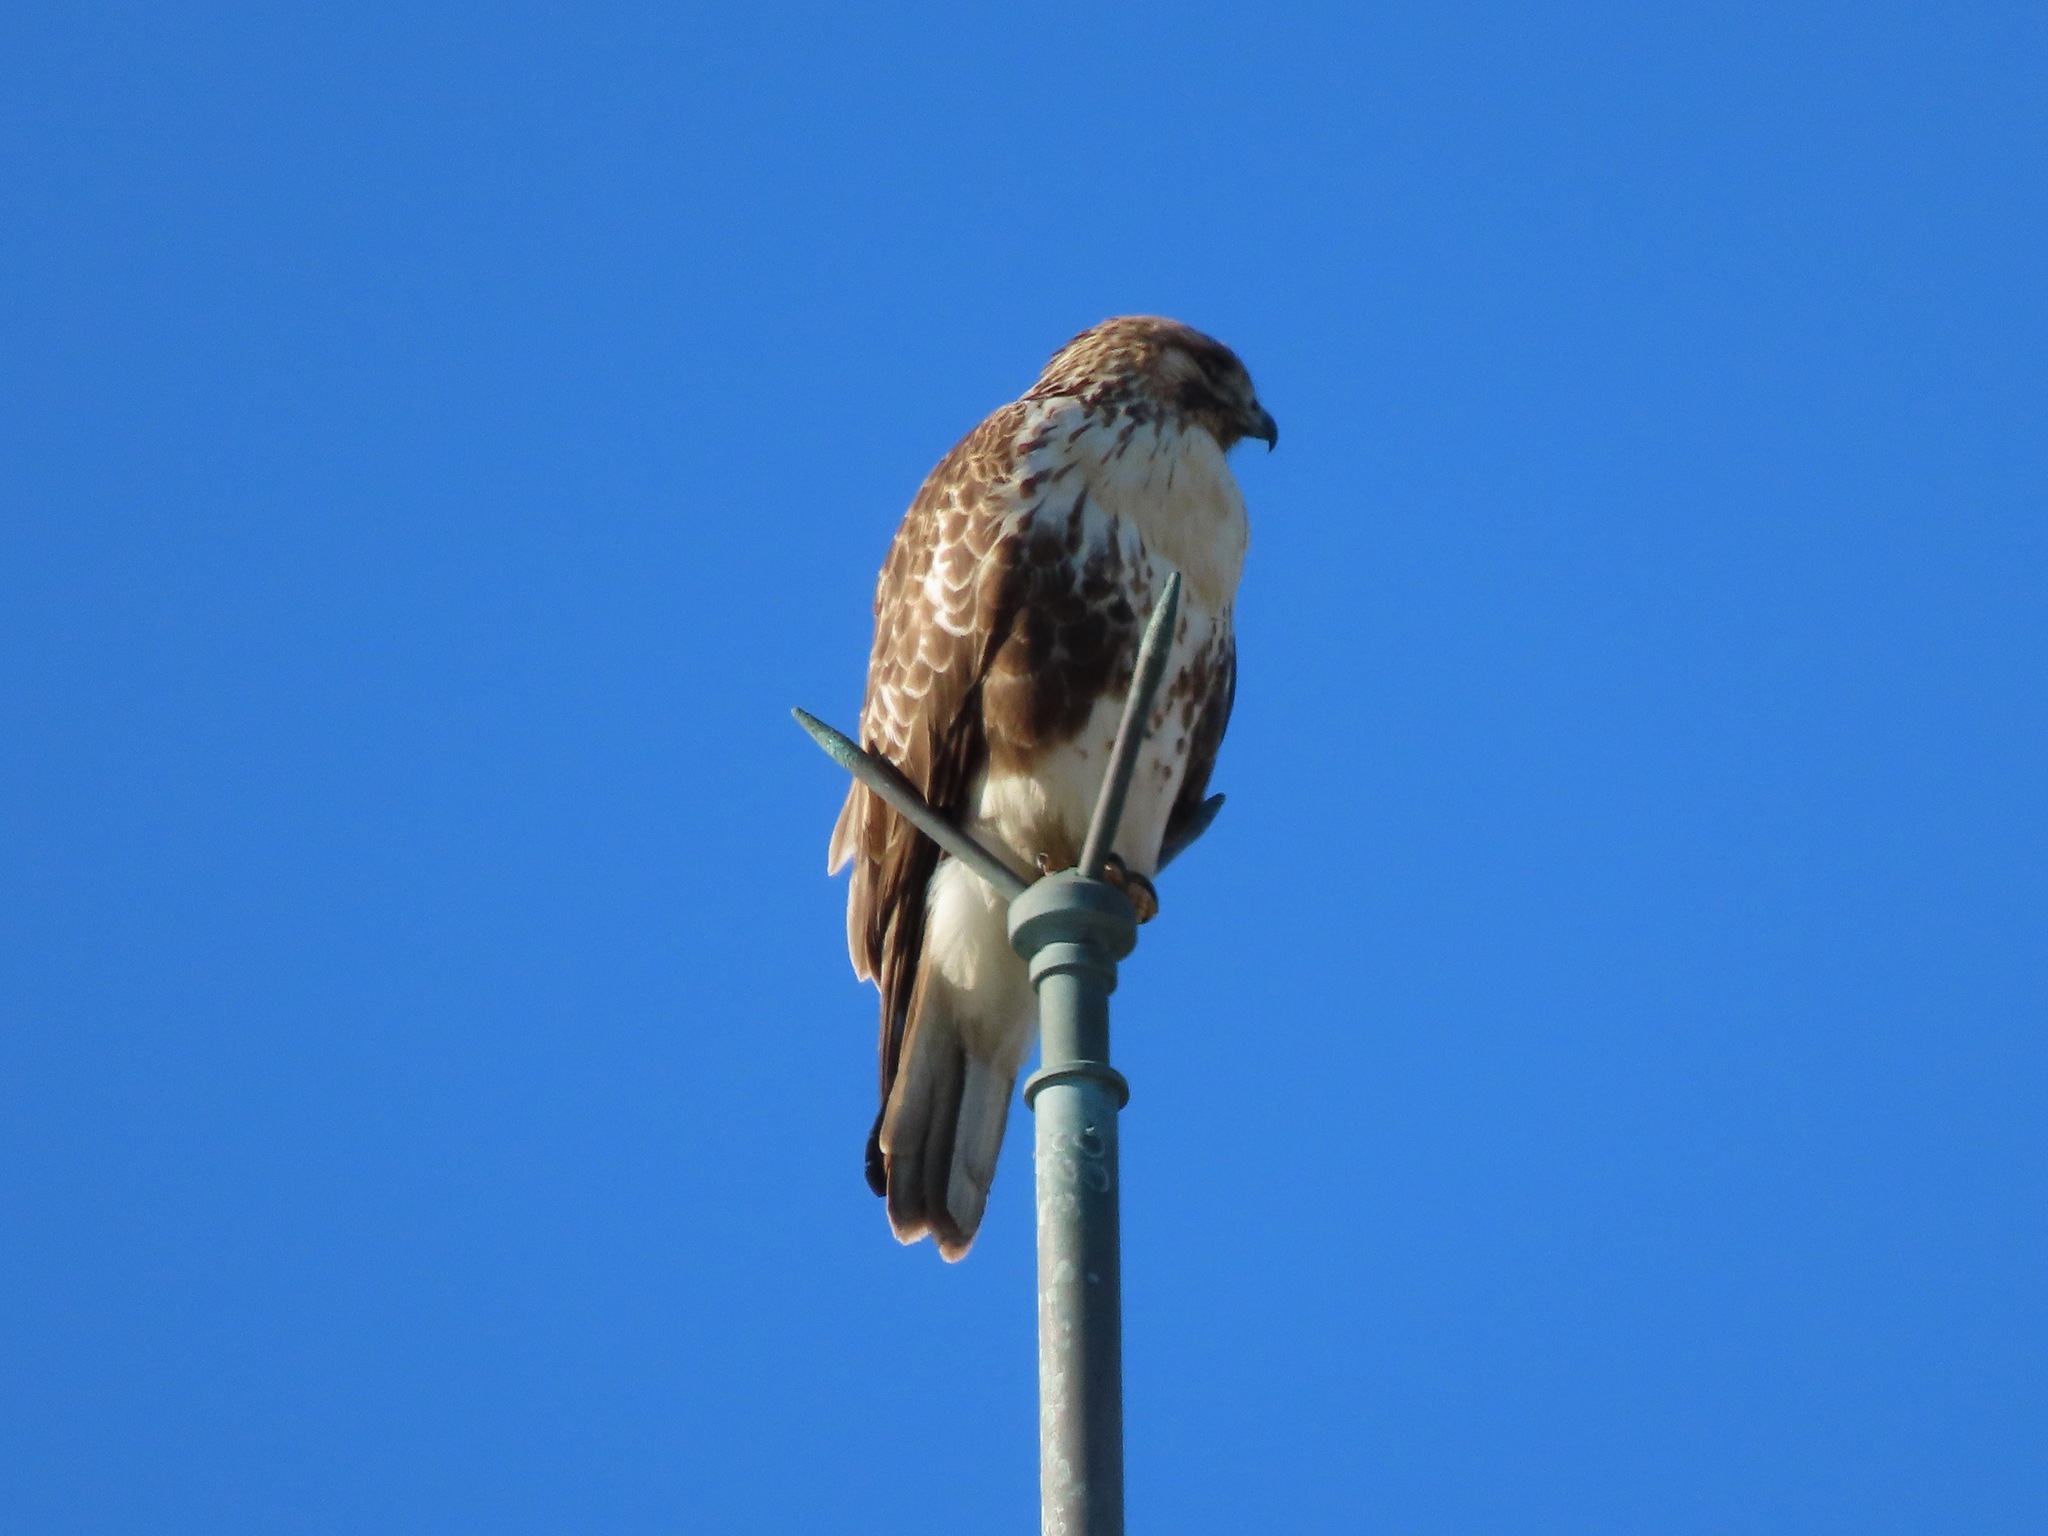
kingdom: Animalia
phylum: Chordata
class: Aves
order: Accipitriformes
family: Accipitridae
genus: Buteo
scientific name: Buteo japonicus
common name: Eastern buzzard
